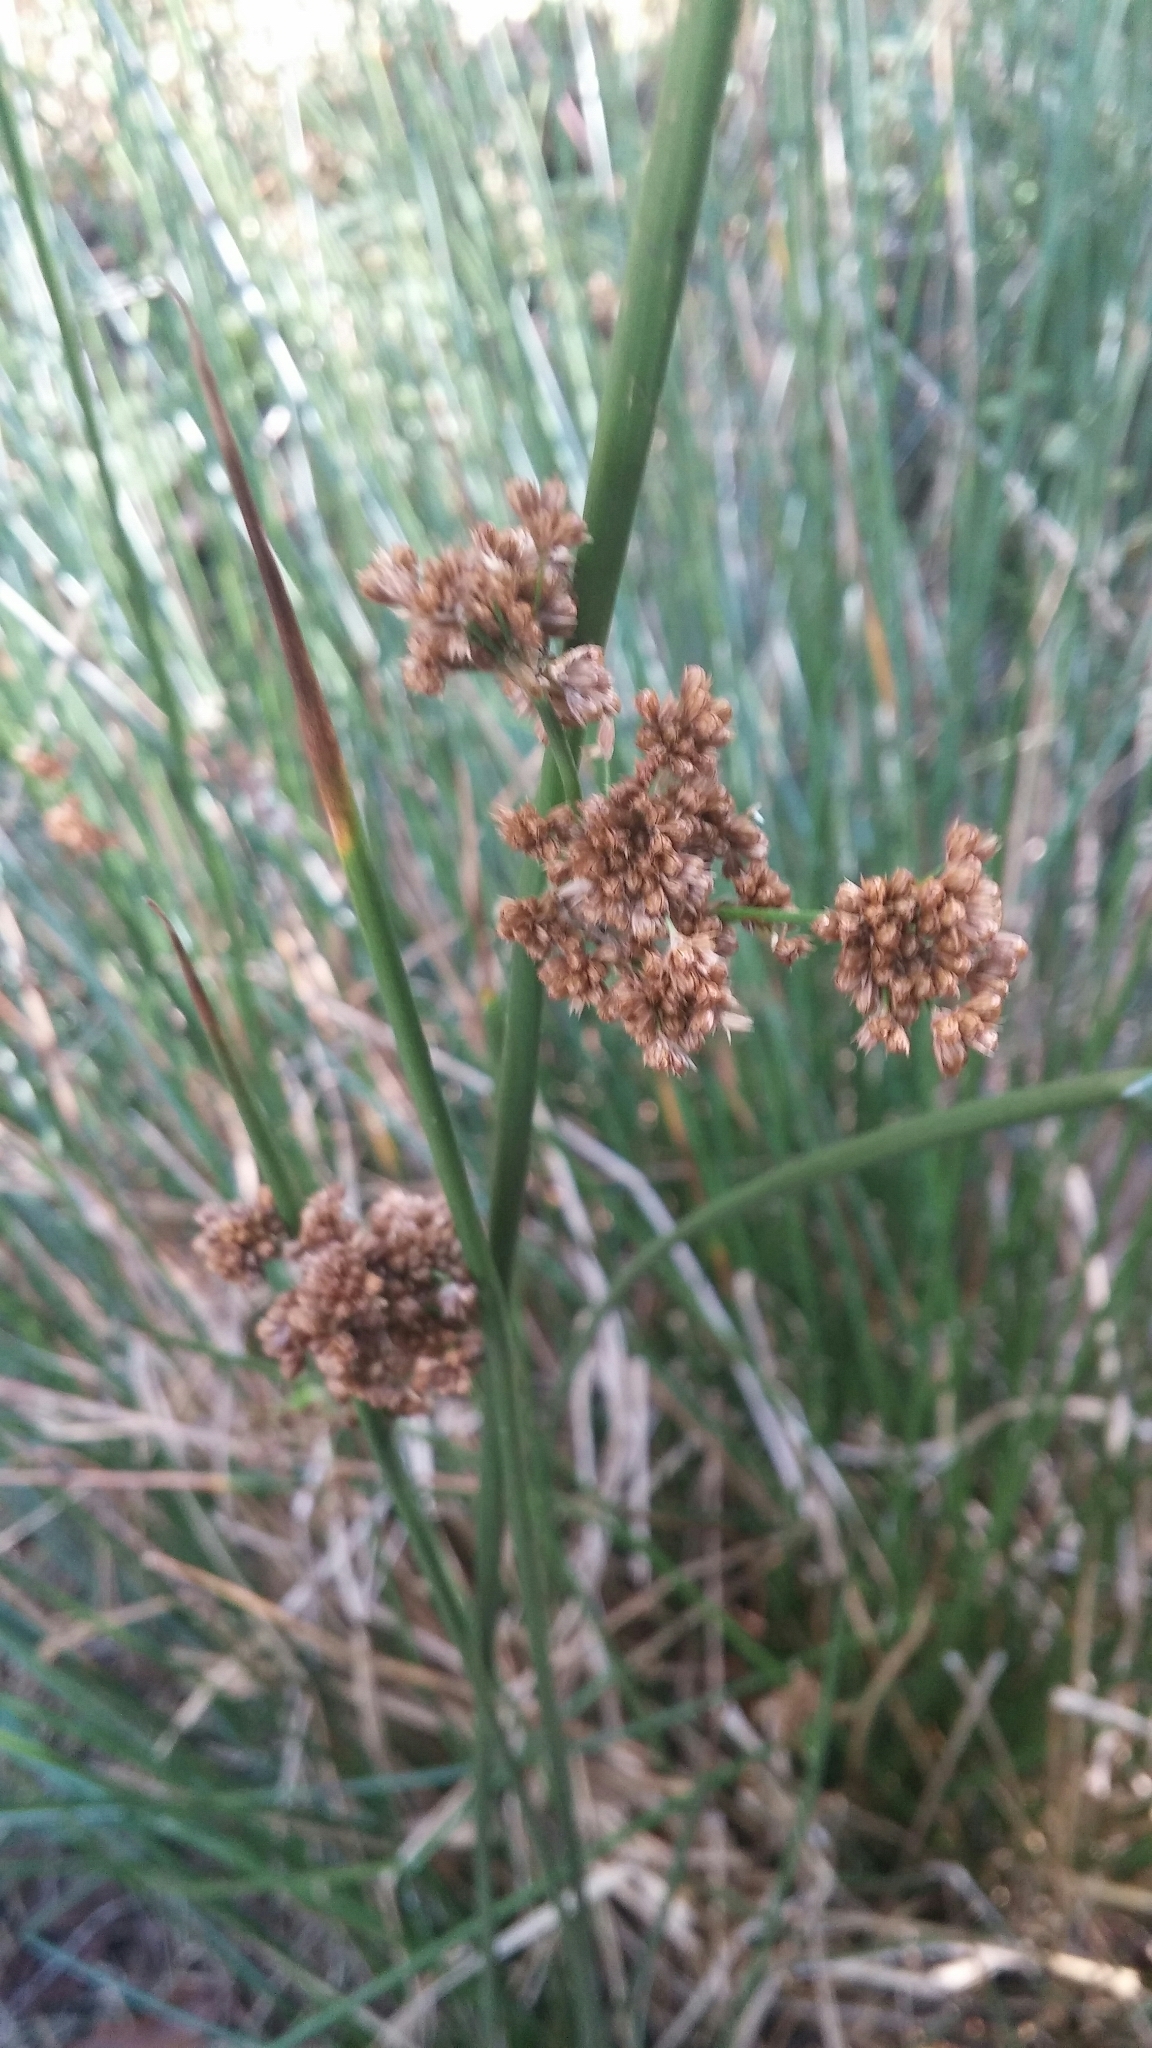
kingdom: Plantae
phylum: Tracheophyta
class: Liliopsida
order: Poales
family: Juncaceae
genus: Juncus
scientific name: Juncus effusus
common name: Soft rush
